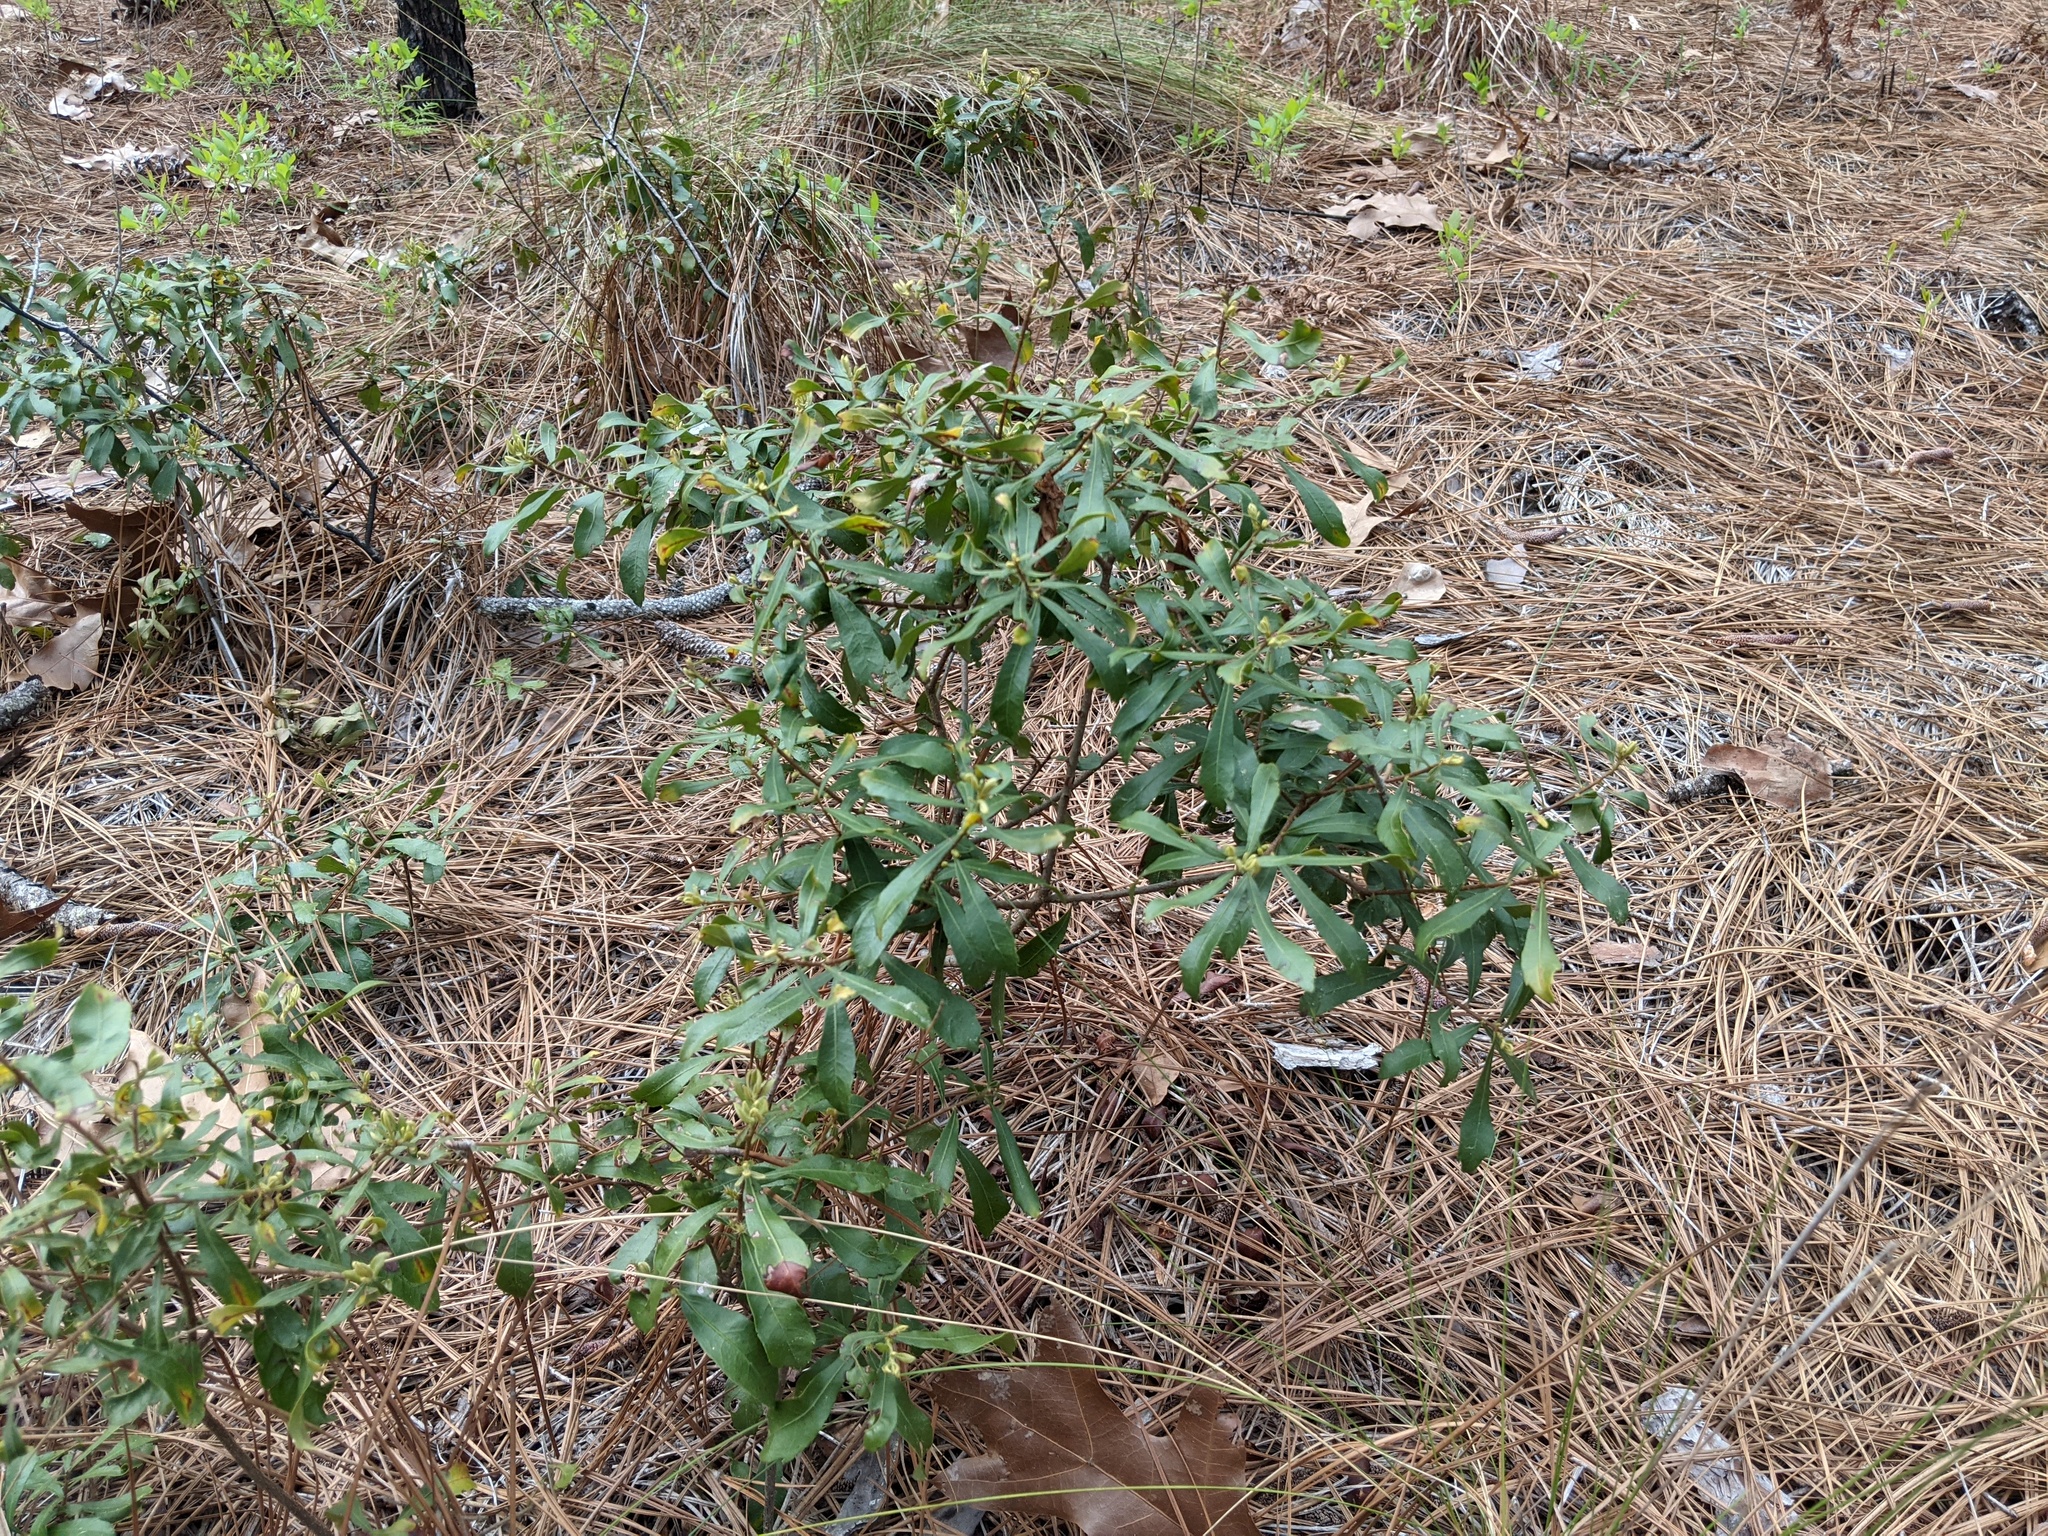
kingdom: Plantae
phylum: Tracheophyta
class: Magnoliopsida
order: Fagales
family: Myricaceae
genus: Morella
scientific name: Morella cerifera
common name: Wax myrtle
